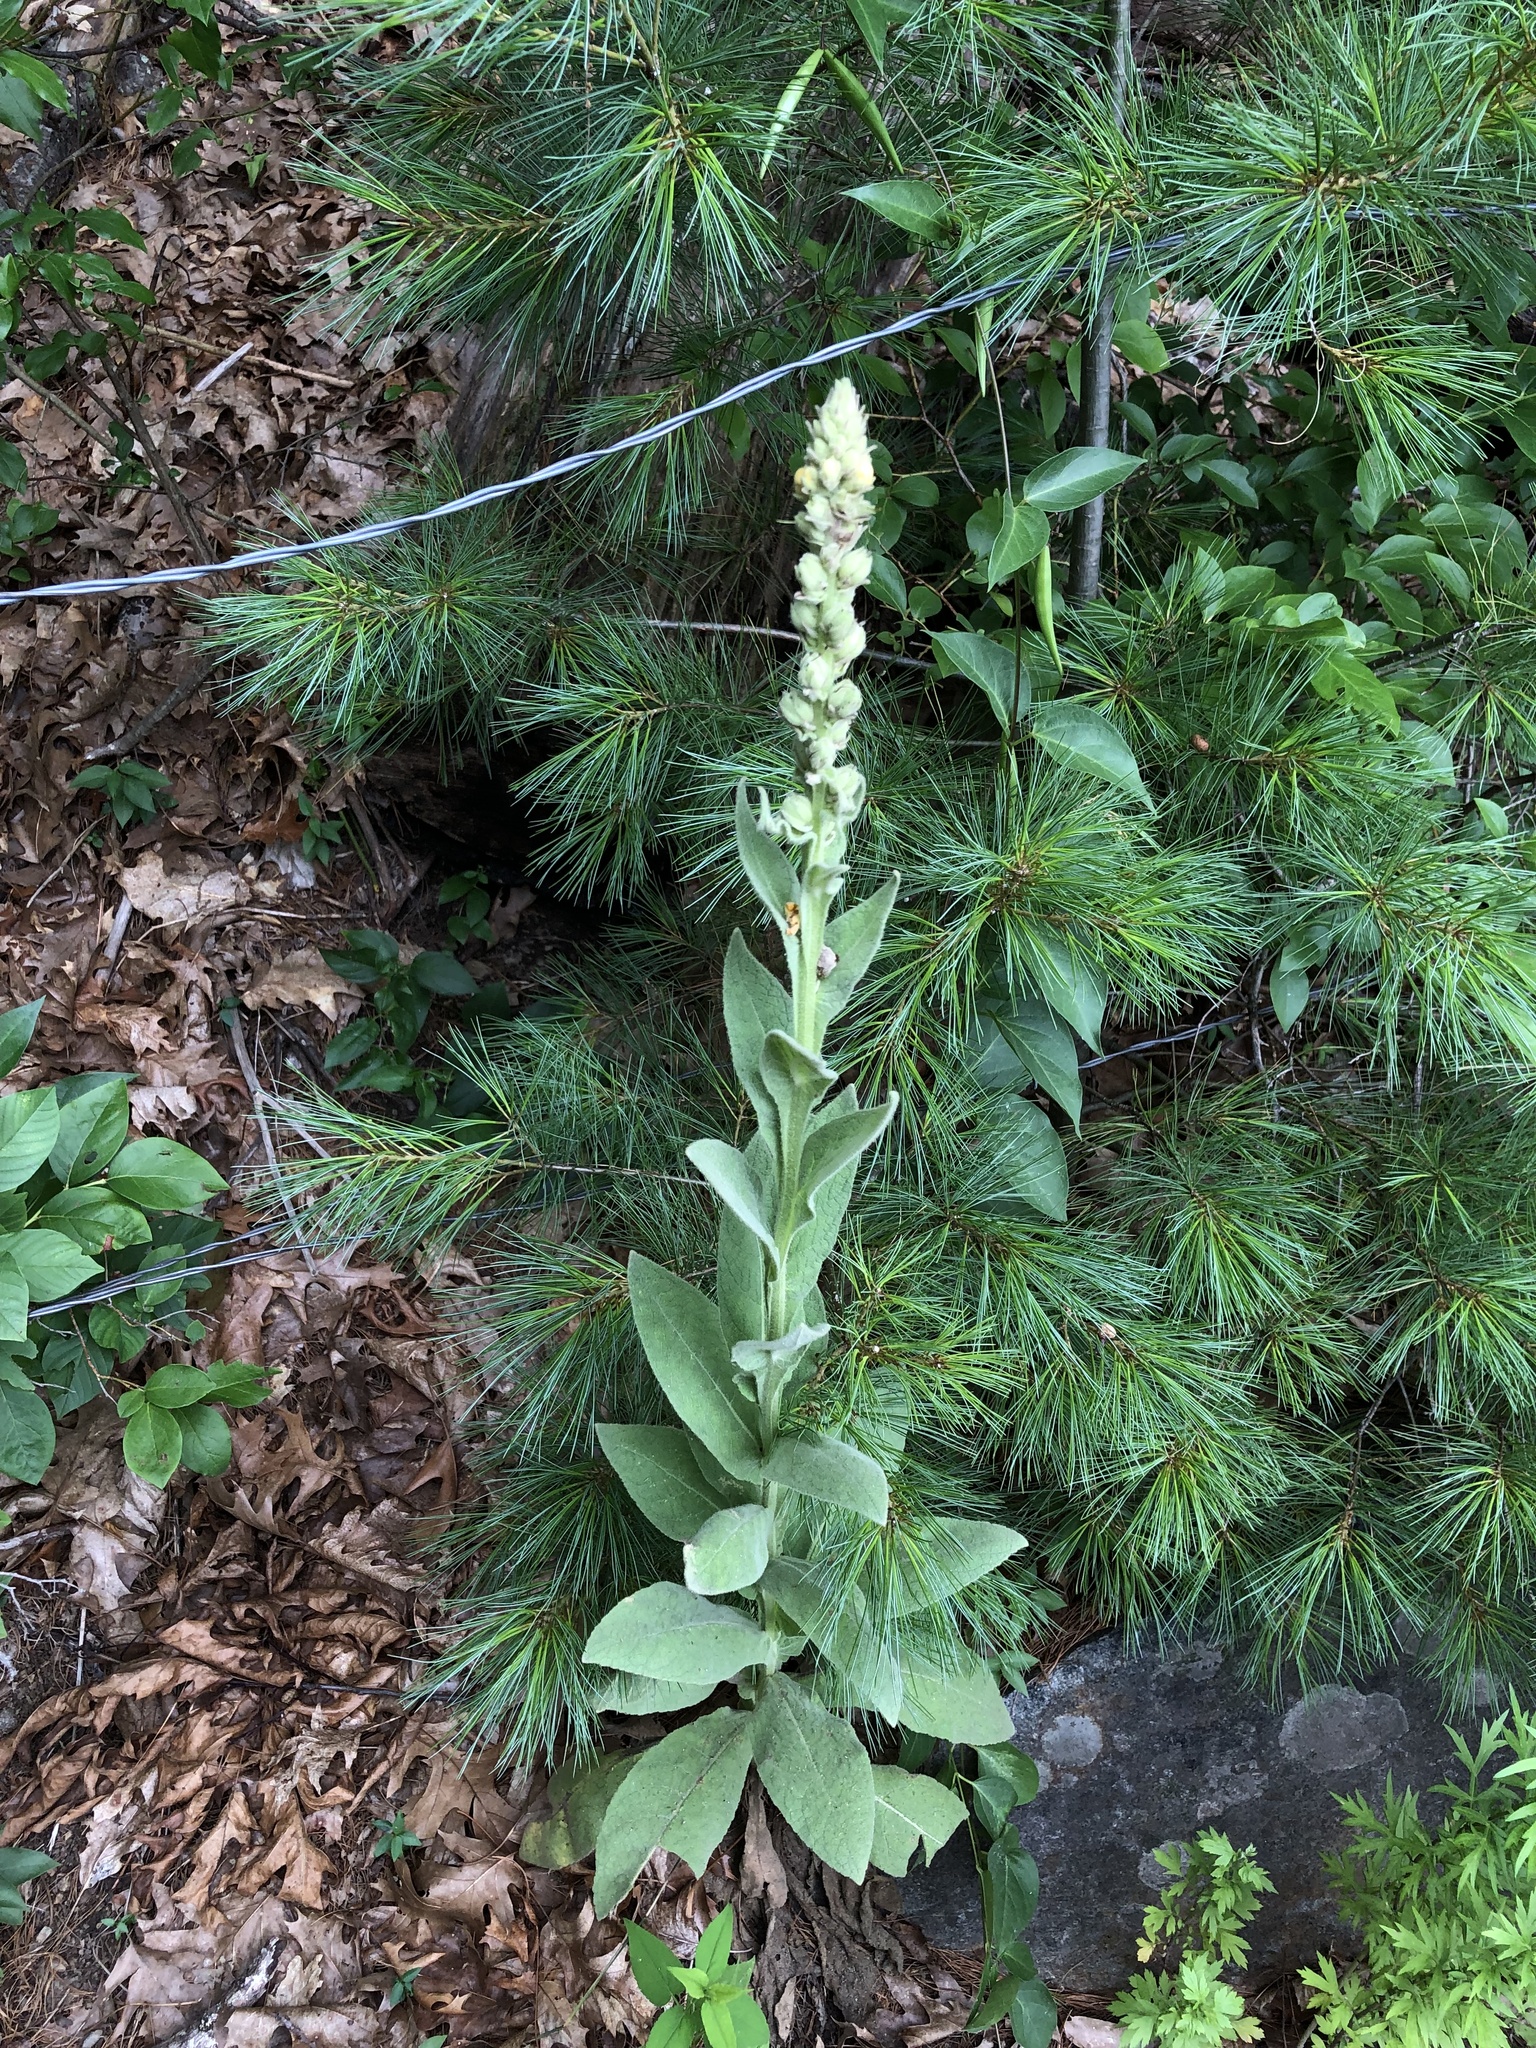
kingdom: Plantae
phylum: Tracheophyta
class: Magnoliopsida
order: Lamiales
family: Scrophulariaceae
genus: Verbascum
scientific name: Verbascum thapsus
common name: Common mullein
